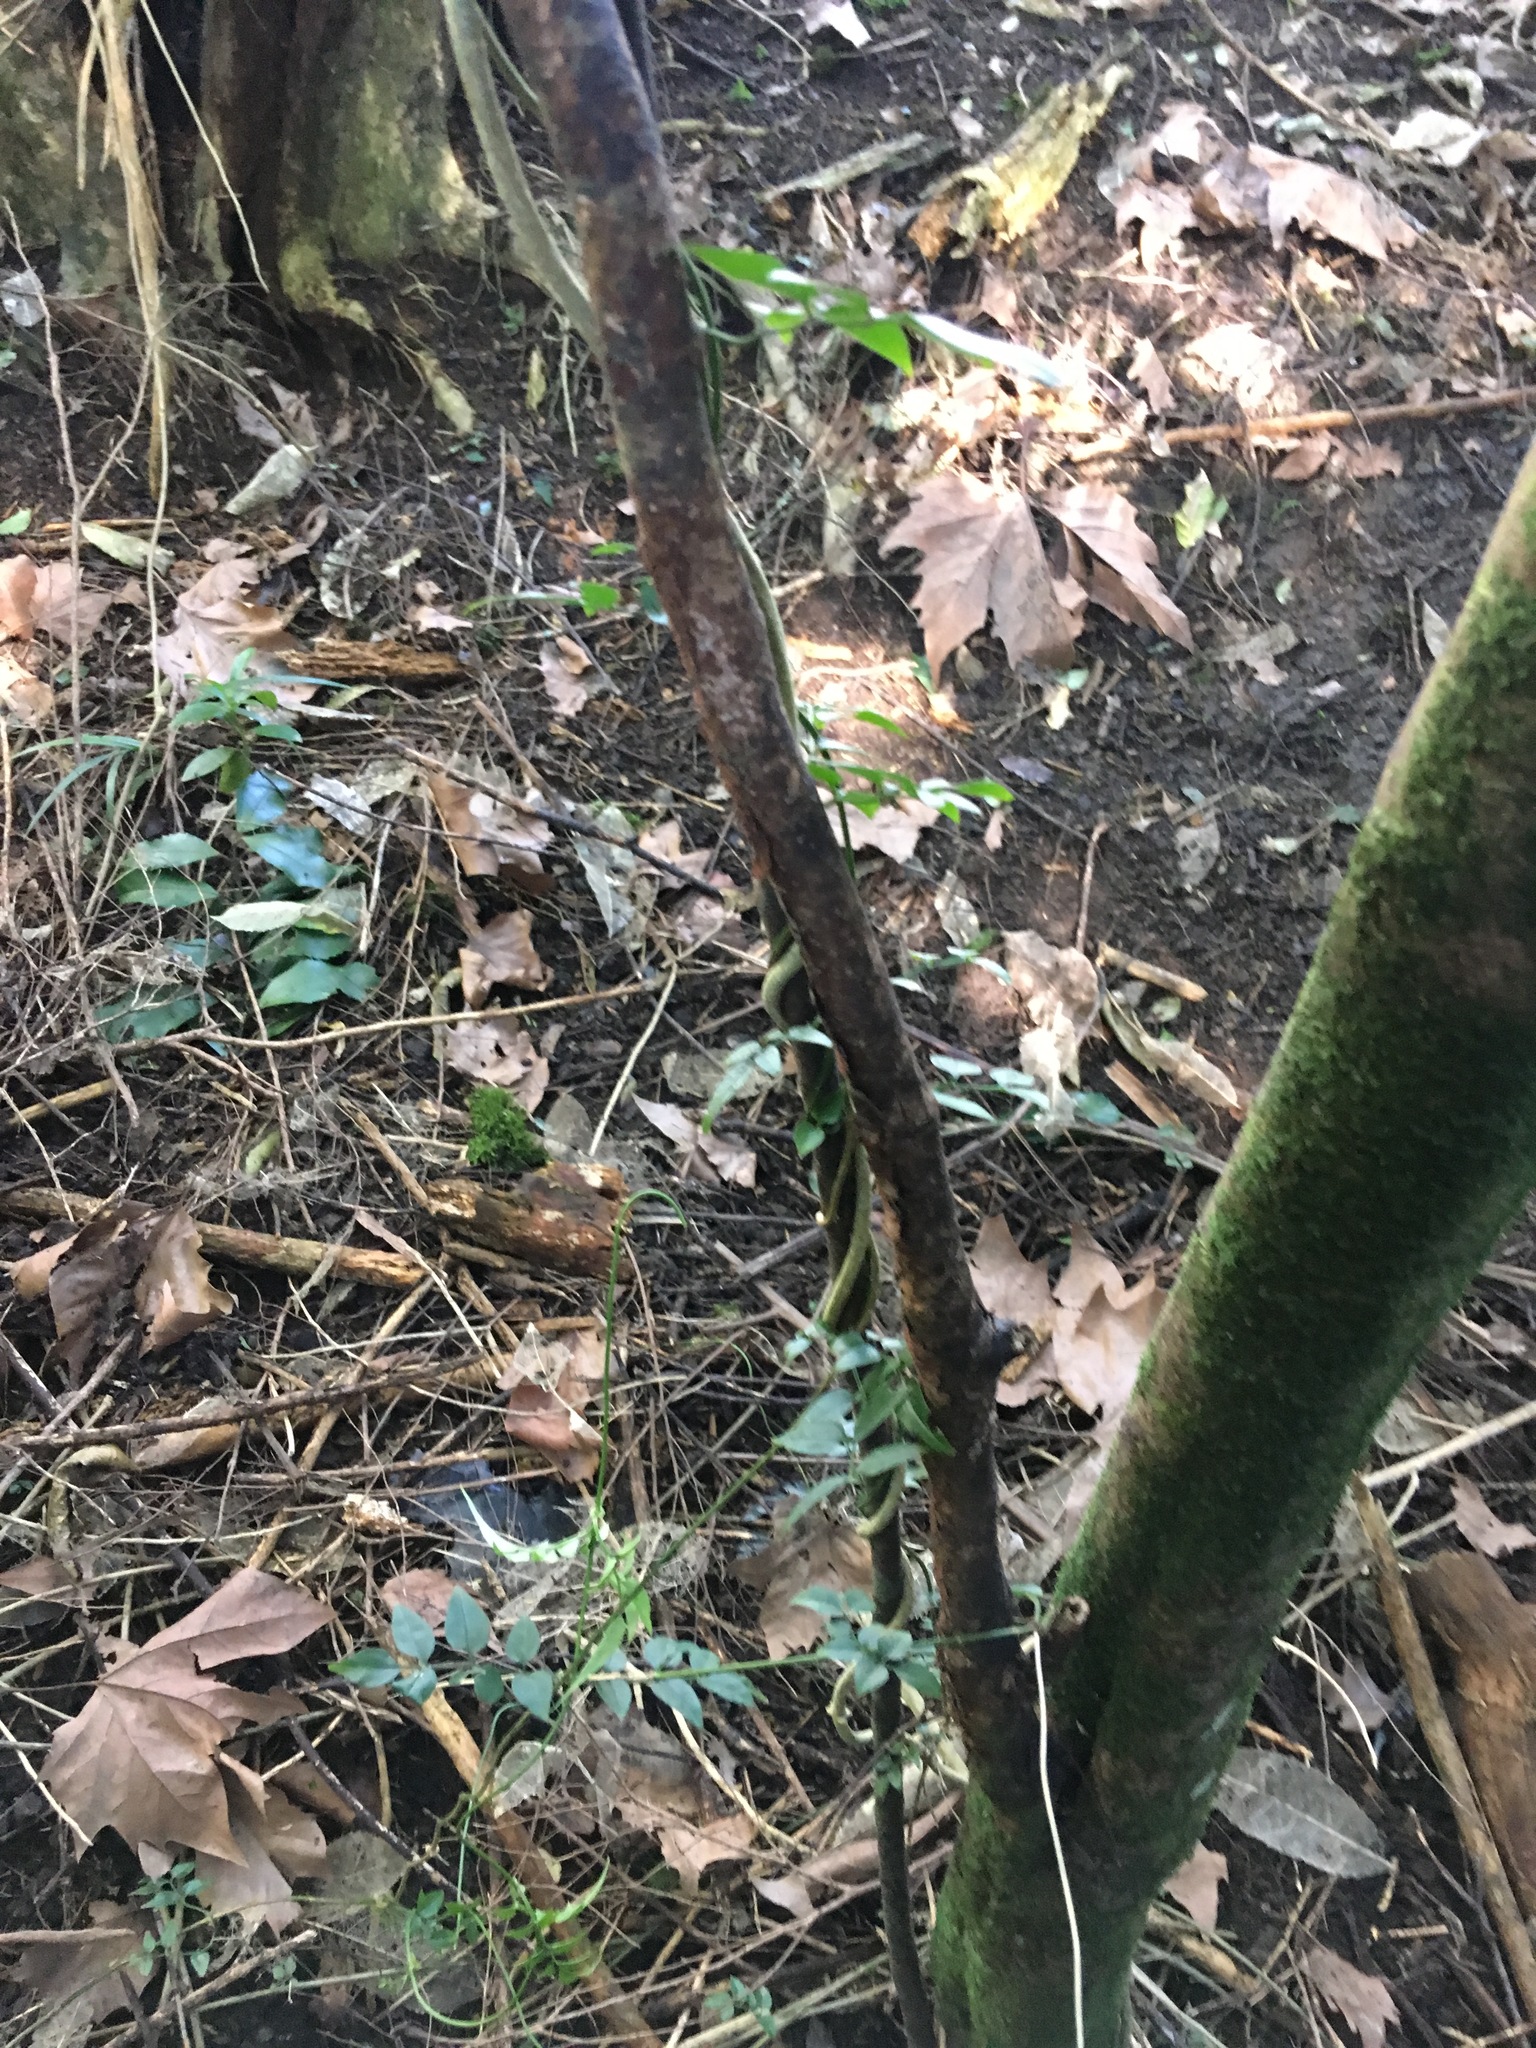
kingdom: Plantae
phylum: Tracheophyta
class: Magnoliopsida
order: Lamiales
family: Oleaceae
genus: Jasminum
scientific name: Jasminum polyanthum
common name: Pink jasmine
